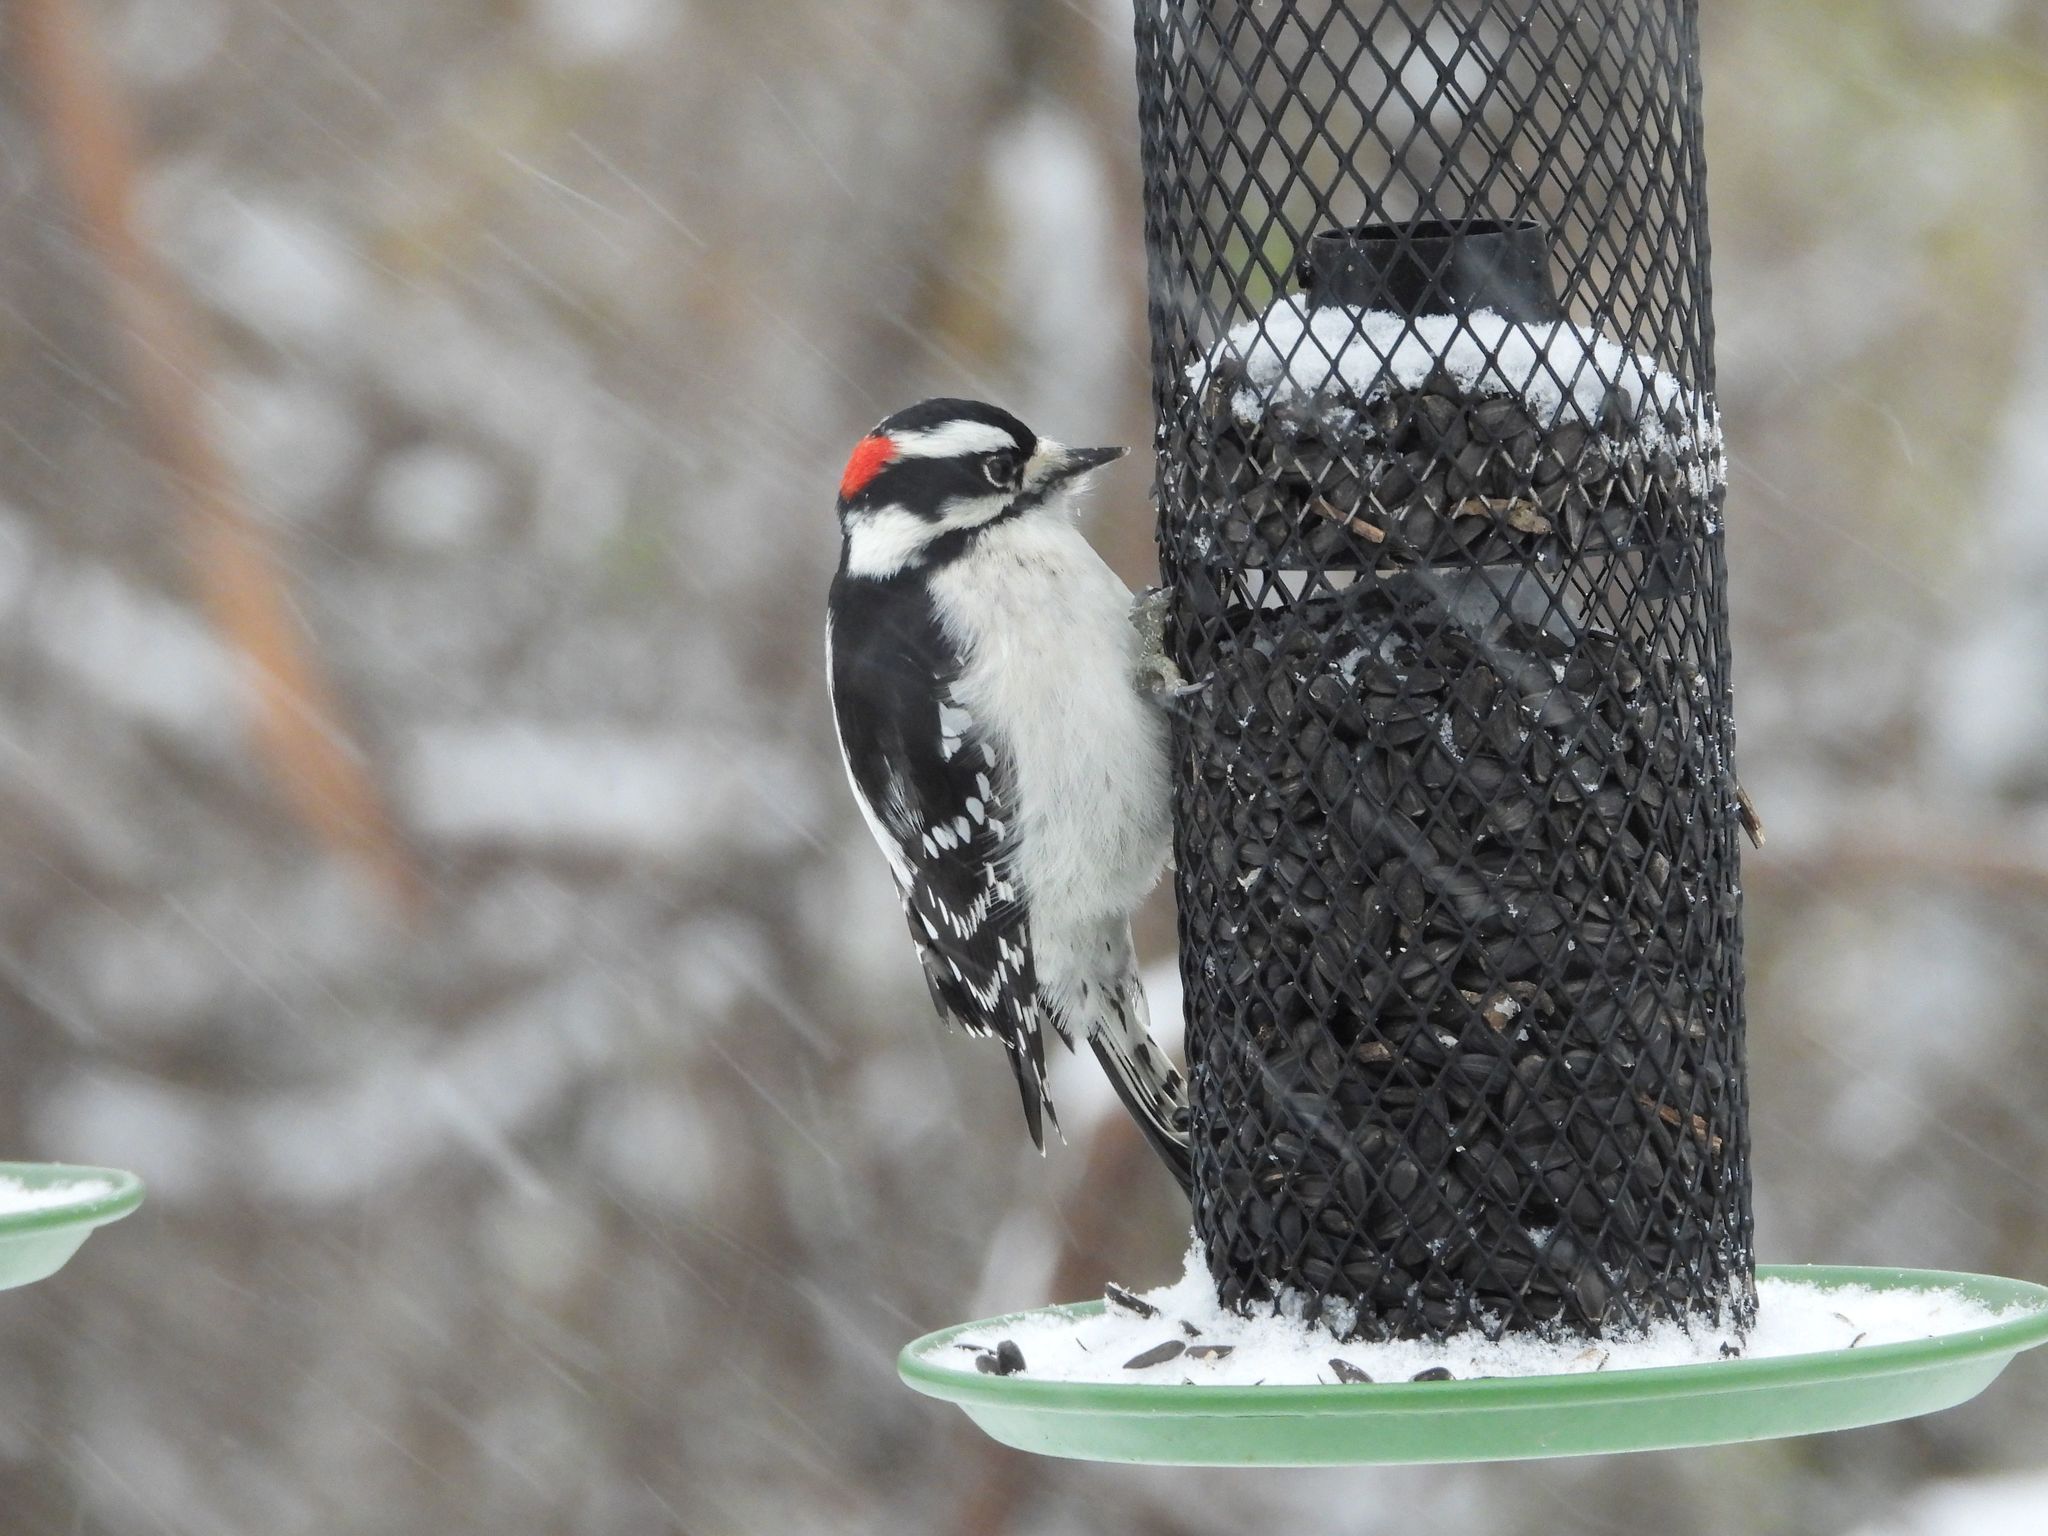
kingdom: Animalia
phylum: Chordata
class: Aves
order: Piciformes
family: Picidae
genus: Dryobates
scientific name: Dryobates pubescens
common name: Downy woodpecker
